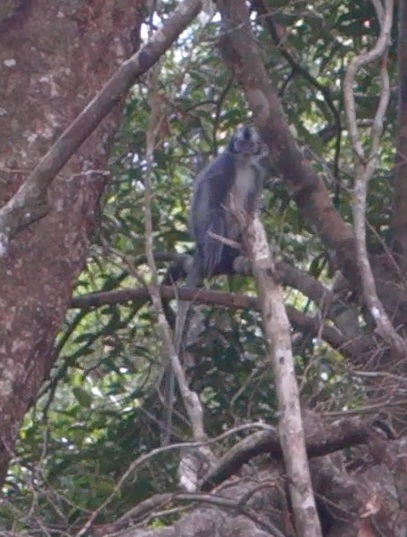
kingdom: Animalia
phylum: Chordata
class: Mammalia
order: Primates
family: Cercopithecidae
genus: Presbytis
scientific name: Presbytis thomasi
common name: Thomas's langur
